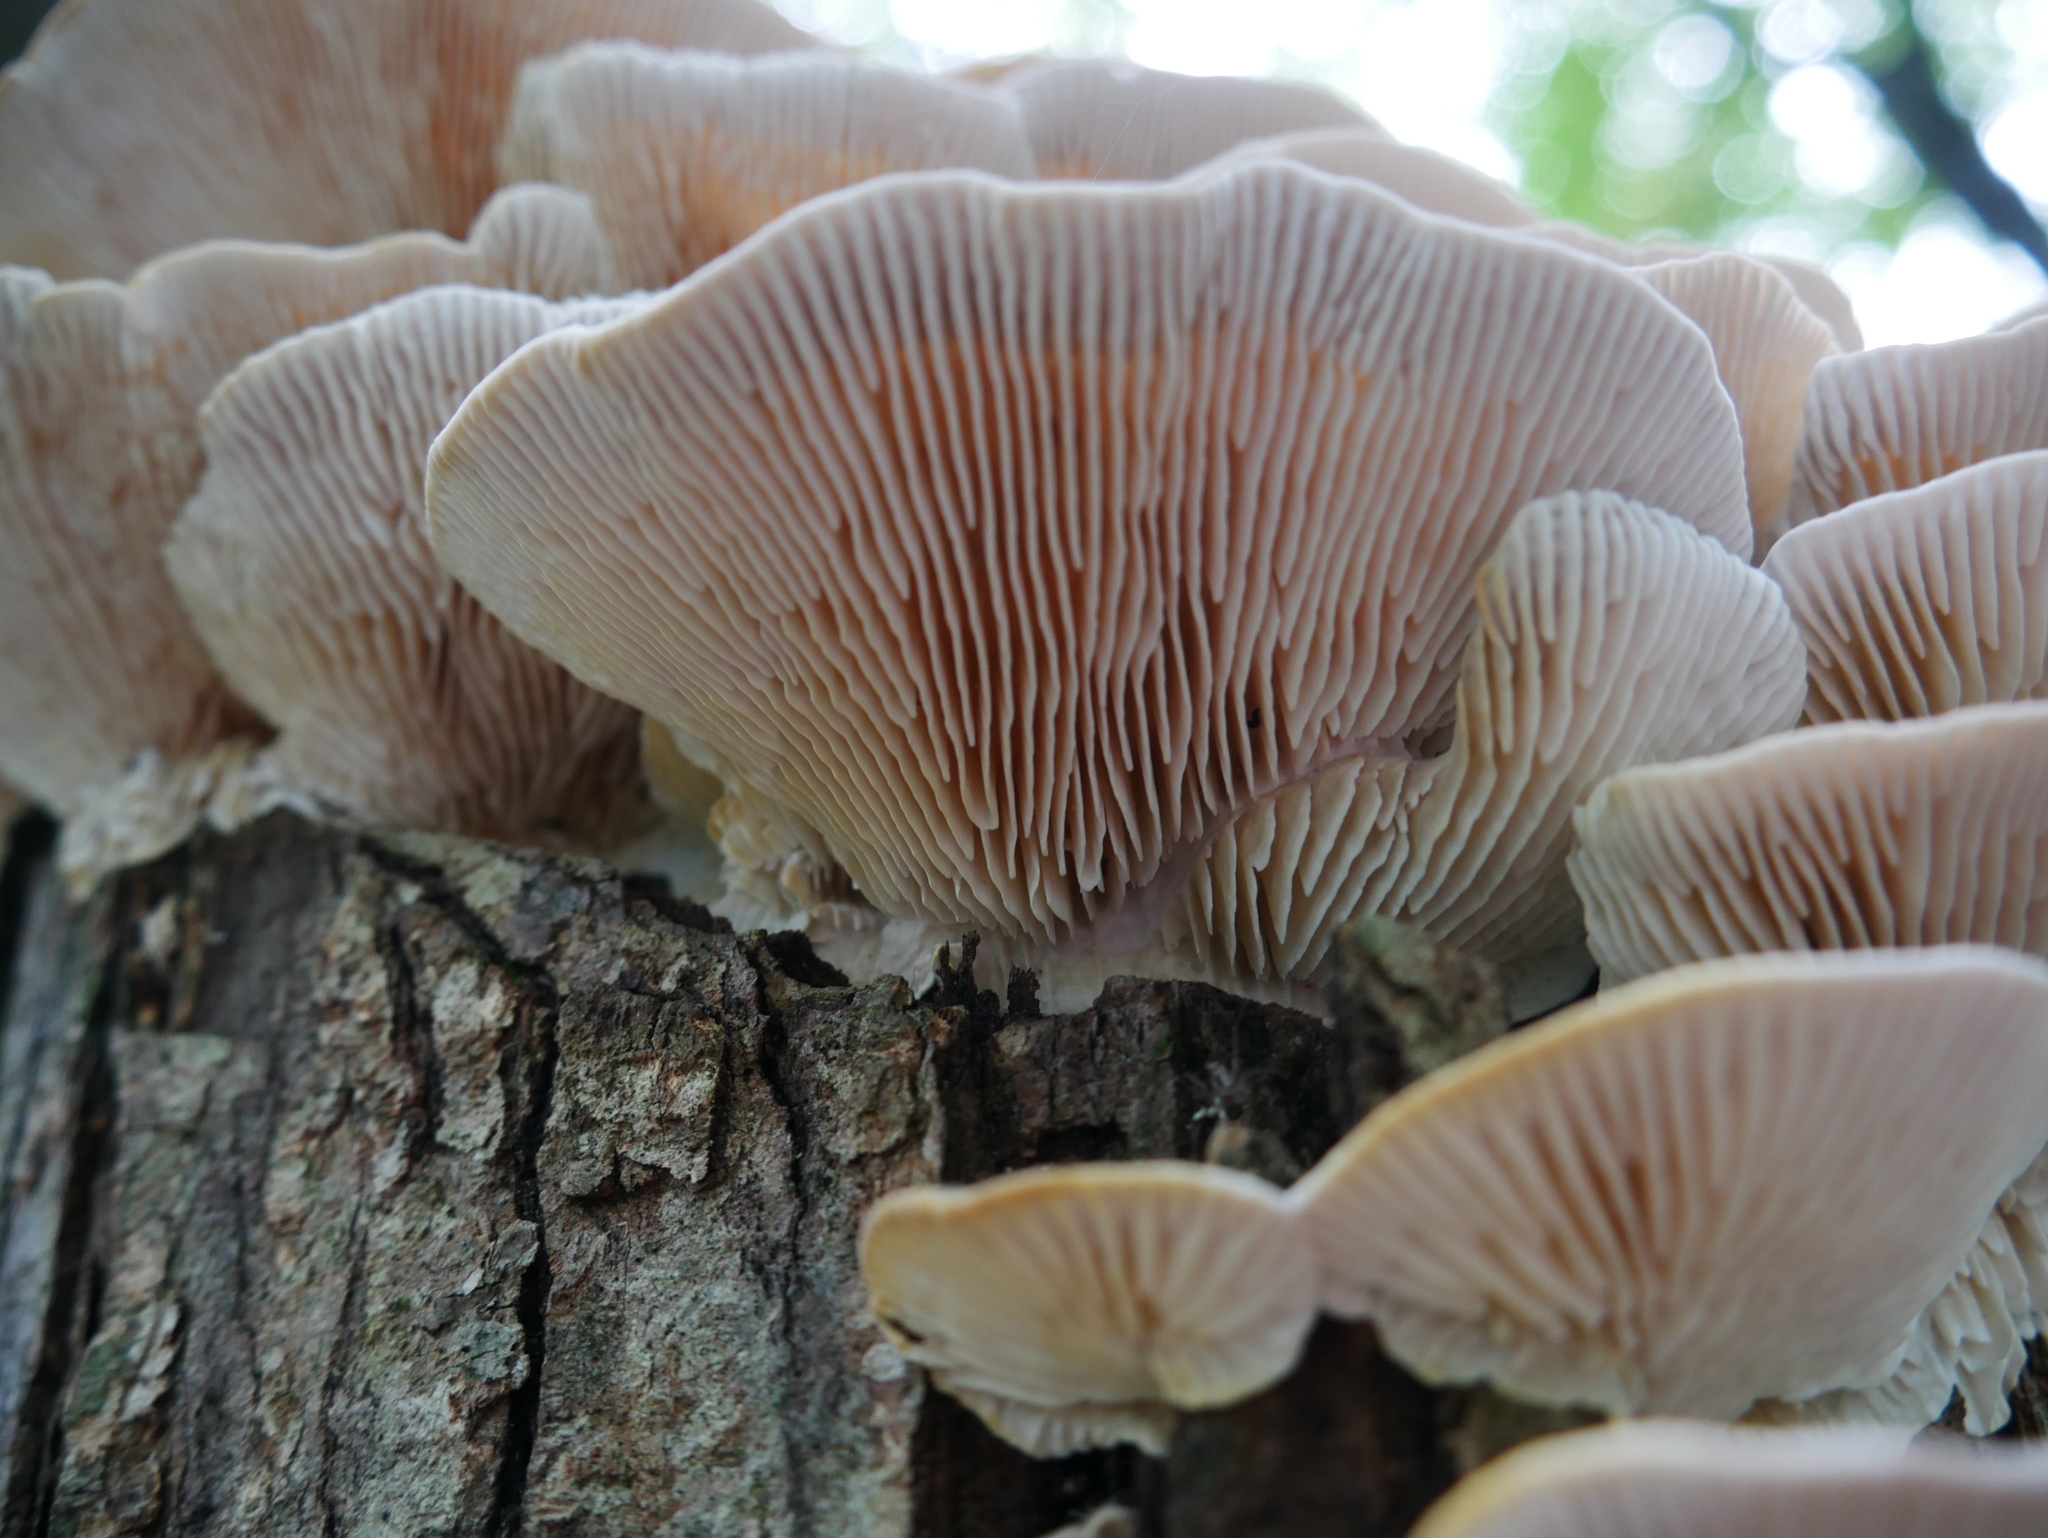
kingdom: Fungi
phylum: Basidiomycota
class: Agaricomycetes
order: Polyporales
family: Polyporaceae
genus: Lenzites
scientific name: Lenzites betulinus
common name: Birch mazegill
